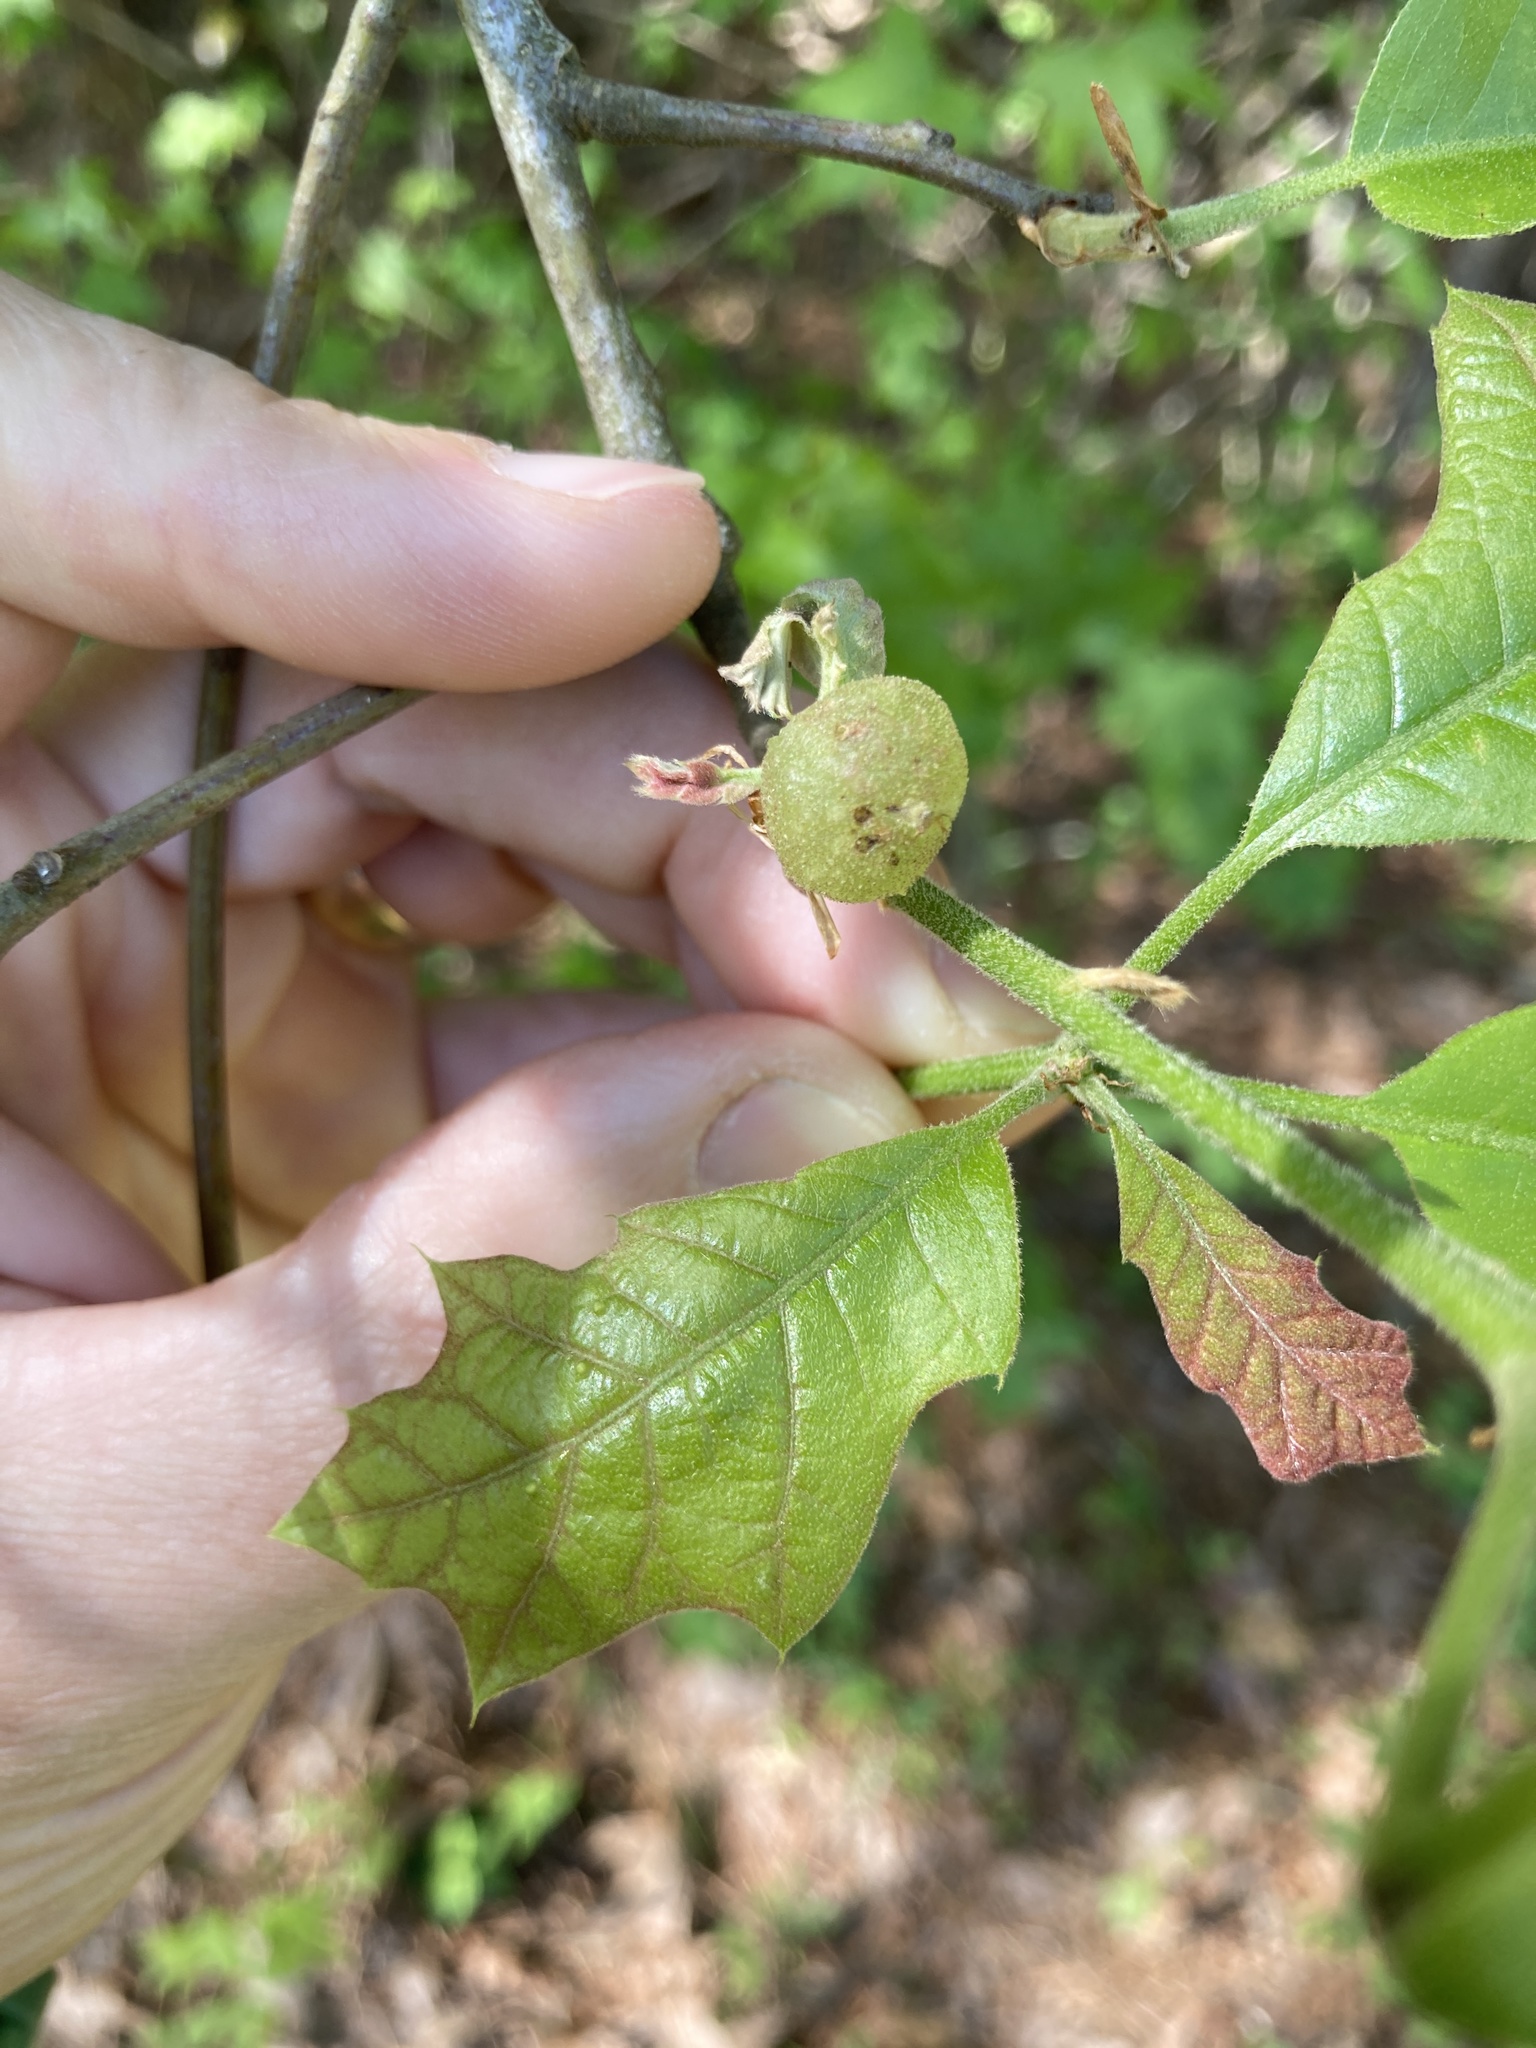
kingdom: Animalia
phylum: Arthropoda
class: Insecta
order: Hymenoptera
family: Cynipidae
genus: Dryocosmus
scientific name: Dryocosmus quercuspalustris
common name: Succulent oak gall wasp
